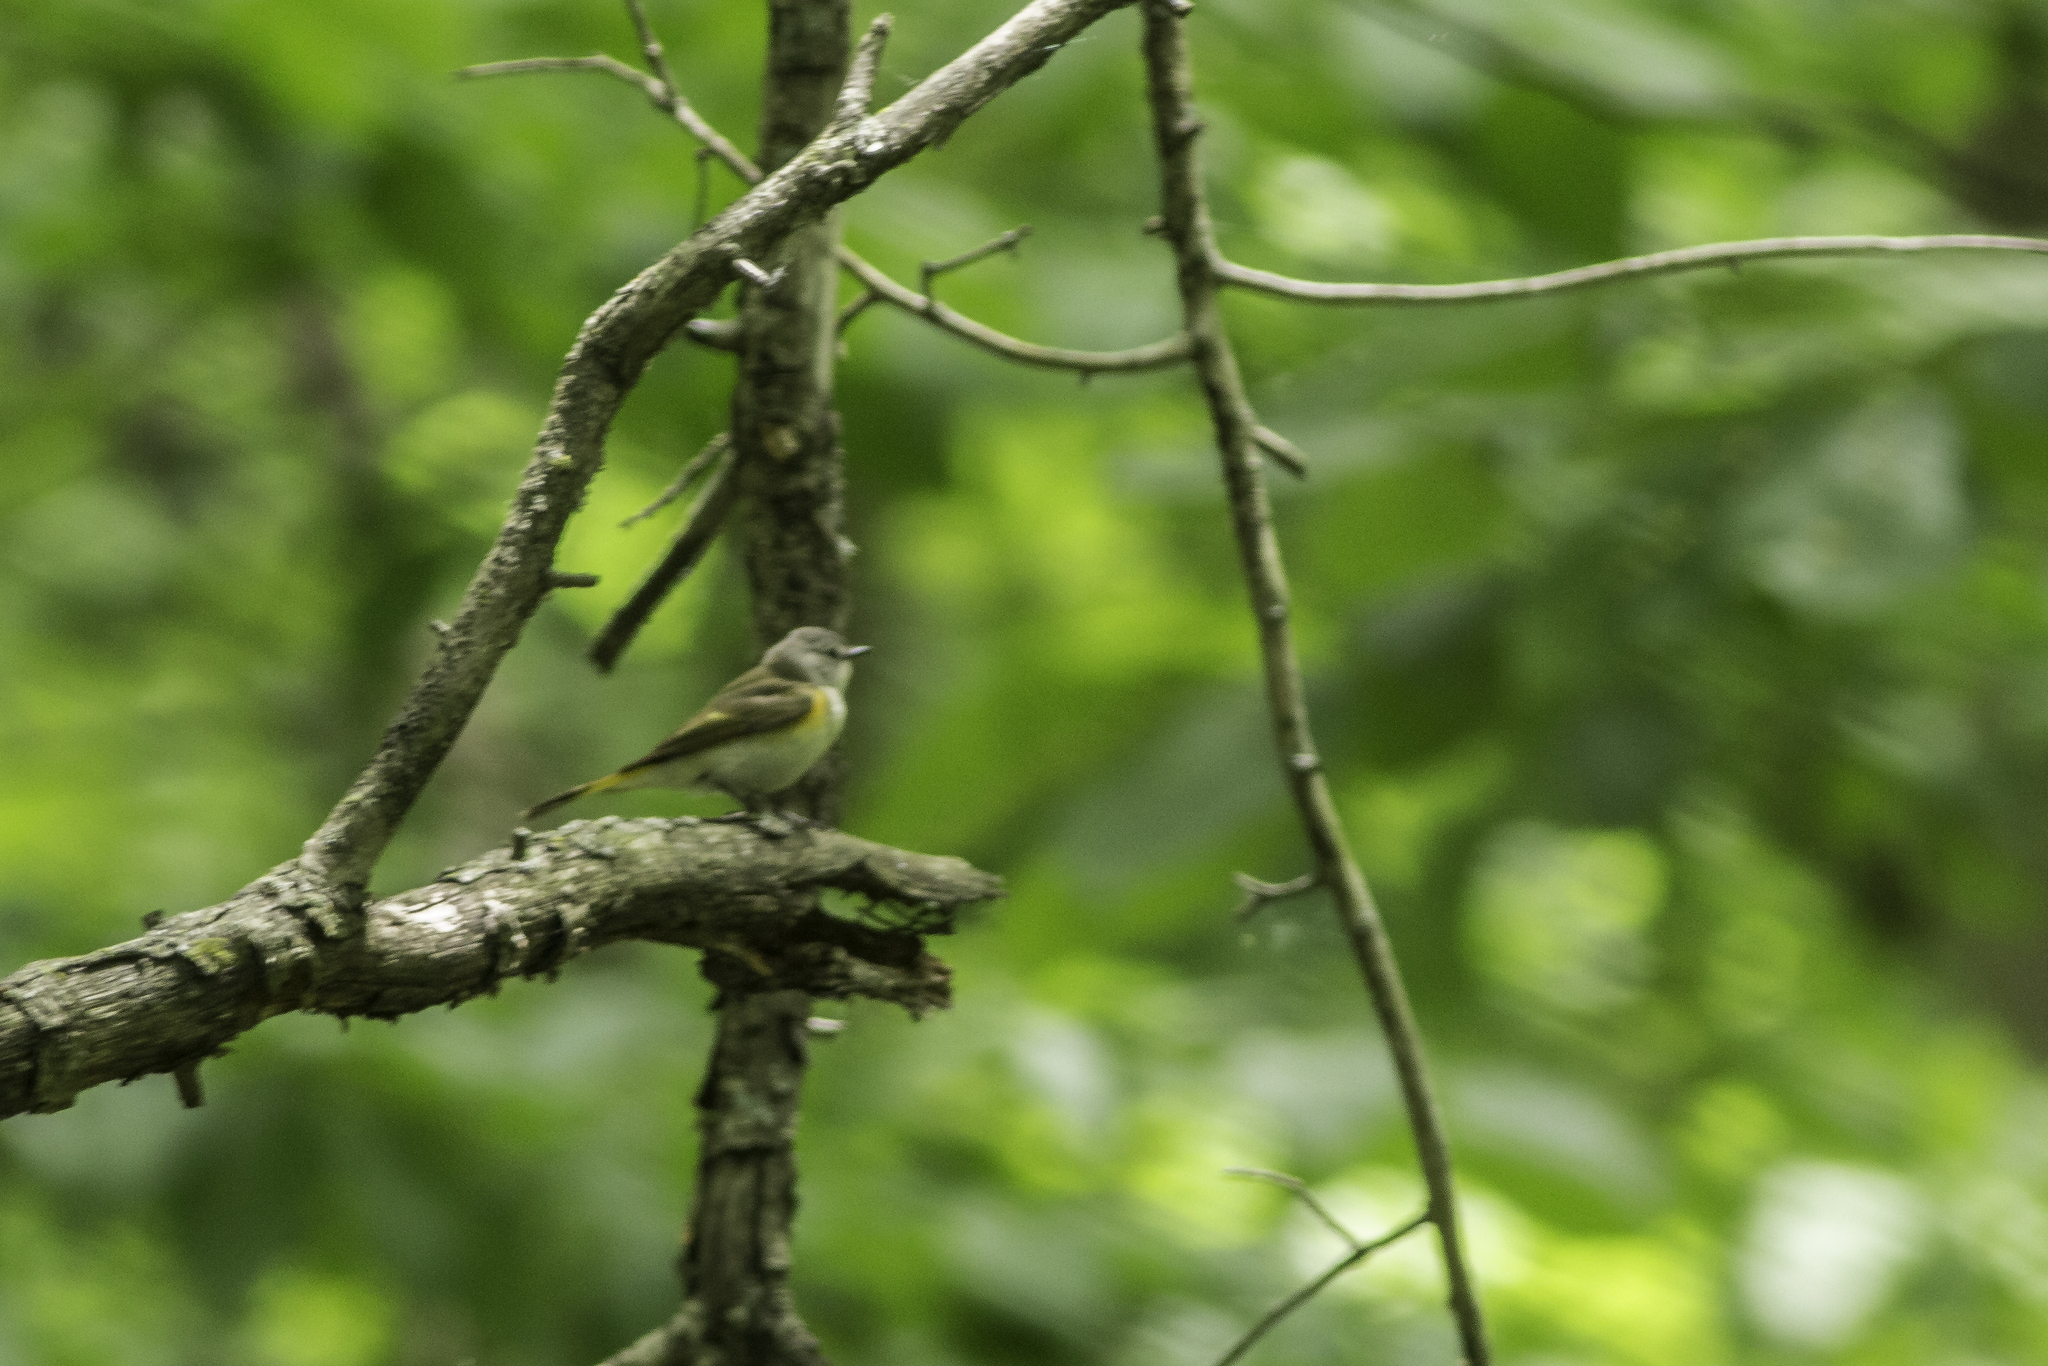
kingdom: Animalia
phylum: Chordata
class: Aves
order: Passeriformes
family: Parulidae
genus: Setophaga
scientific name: Setophaga ruticilla
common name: American redstart
